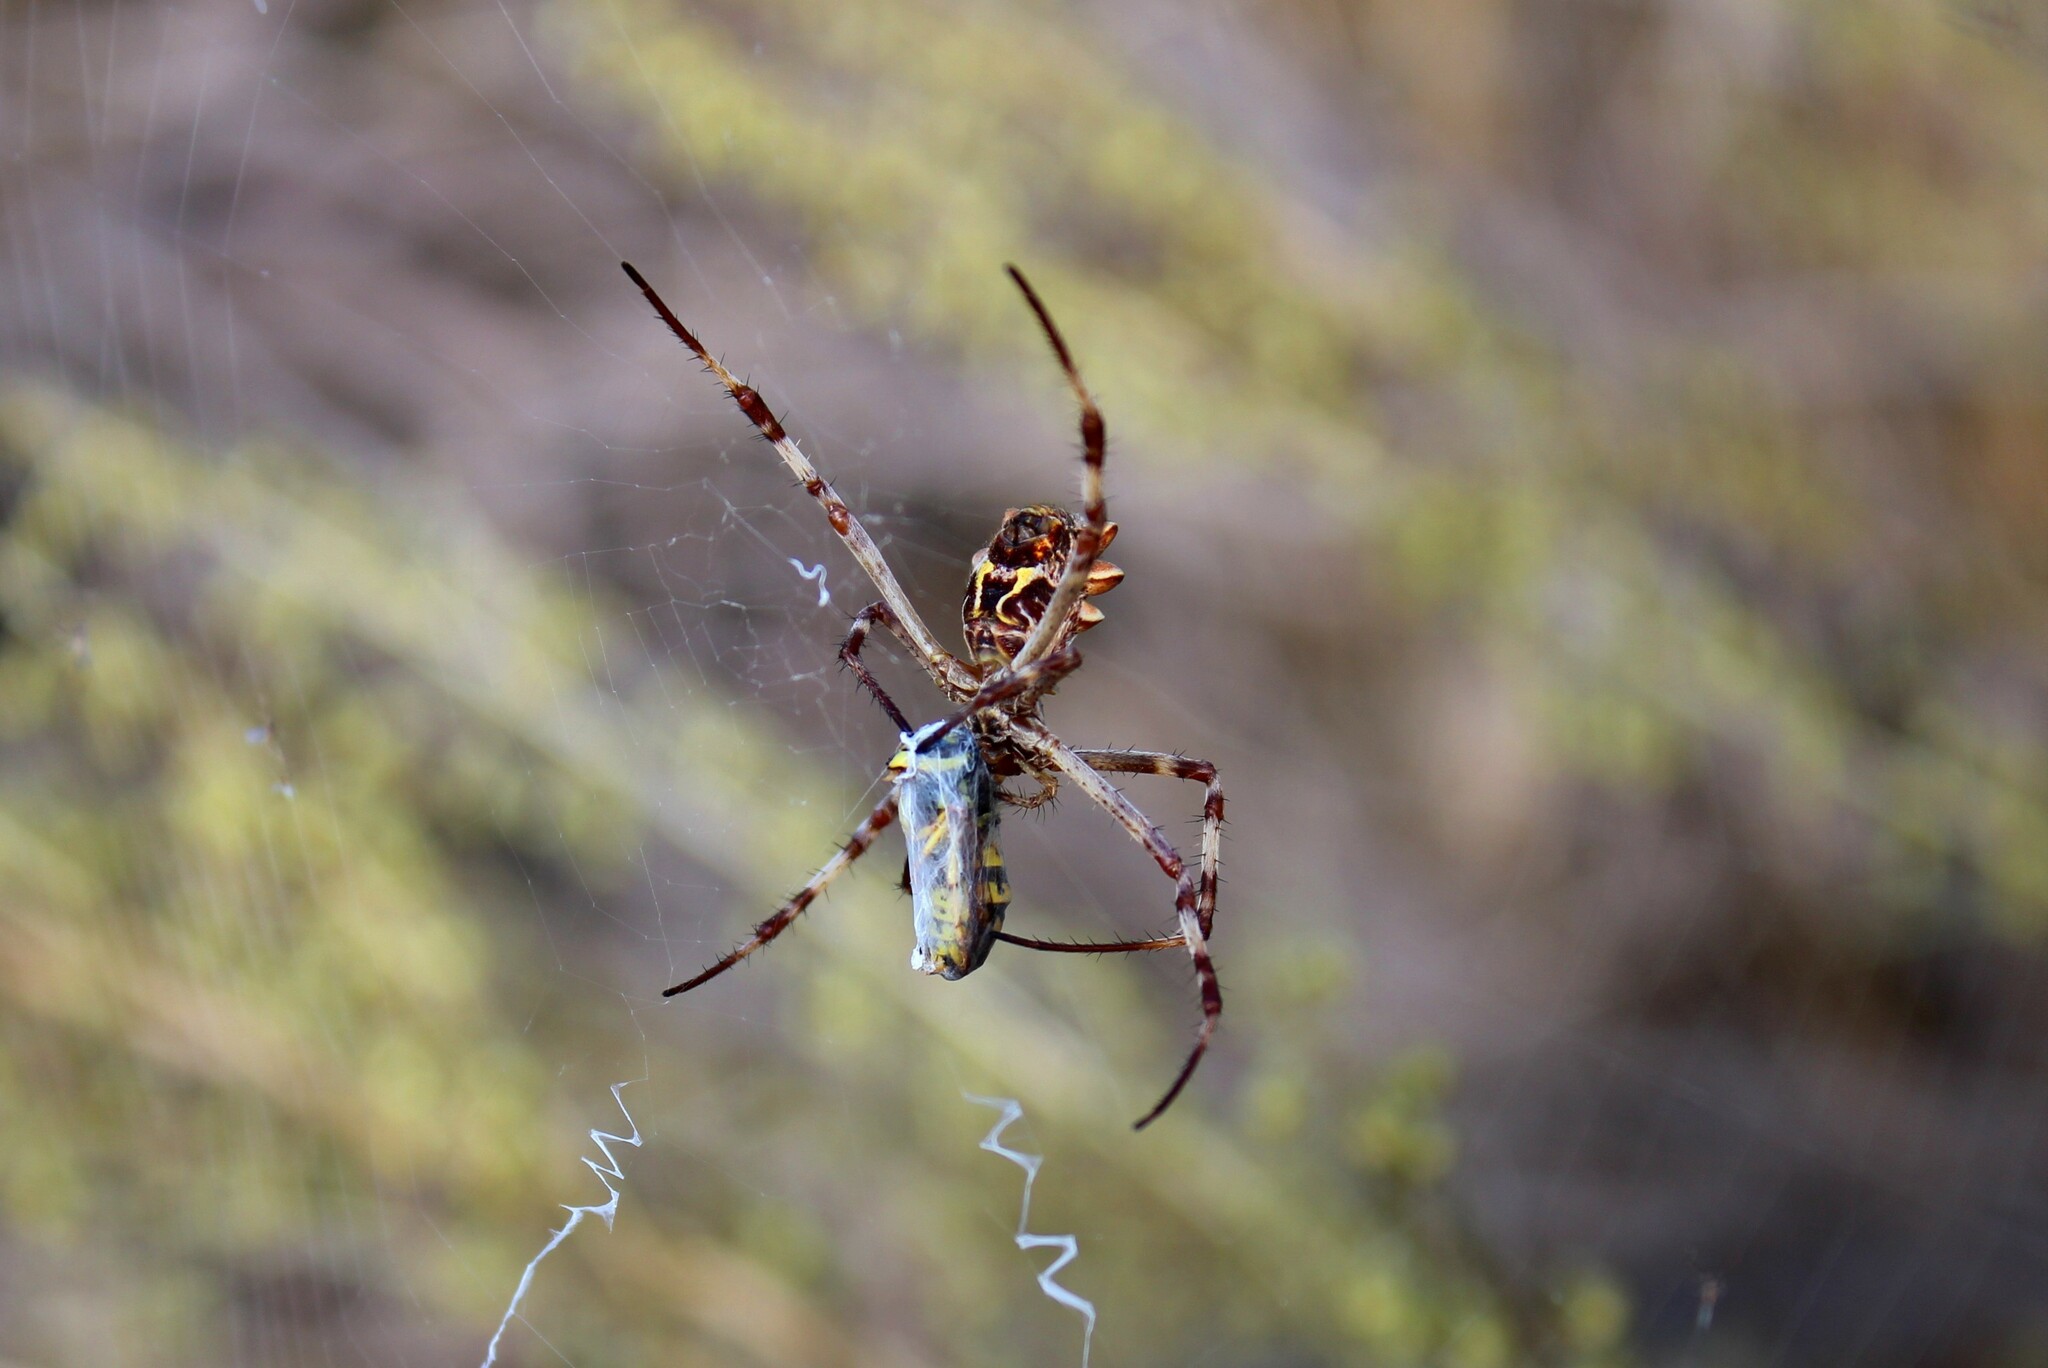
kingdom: Animalia
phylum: Arthropoda
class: Arachnida
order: Araneae
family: Araneidae
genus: Argiope
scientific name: Argiope argentata
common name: Orb weavers
